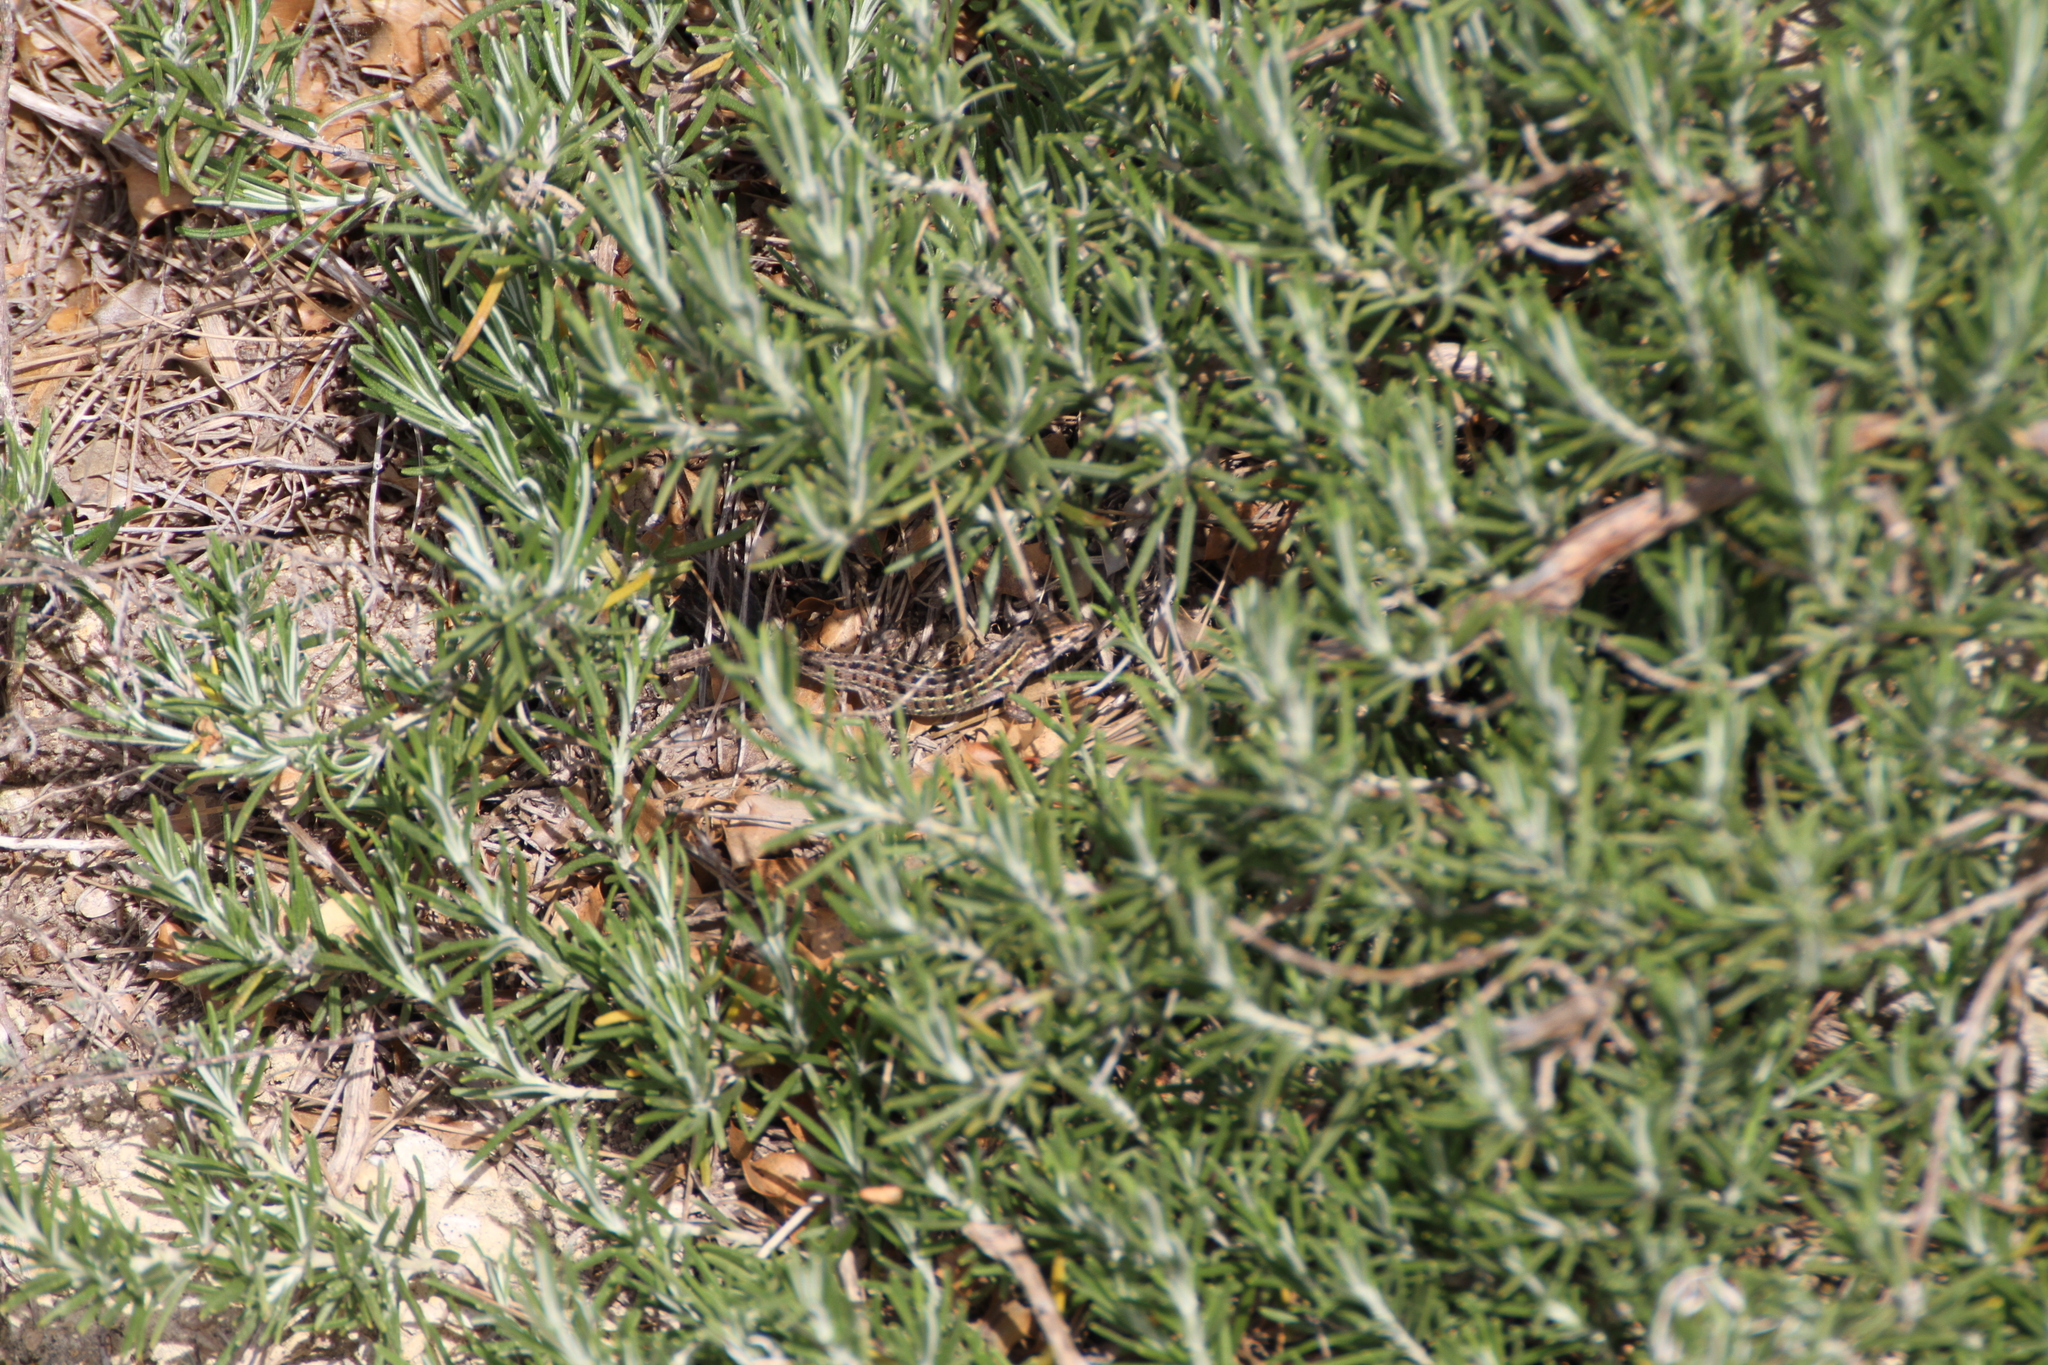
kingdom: Animalia
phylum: Chordata
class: Squamata
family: Lacertidae
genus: Psammodromus
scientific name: Psammodromus edwarsianus
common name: East iberian psammodromus
